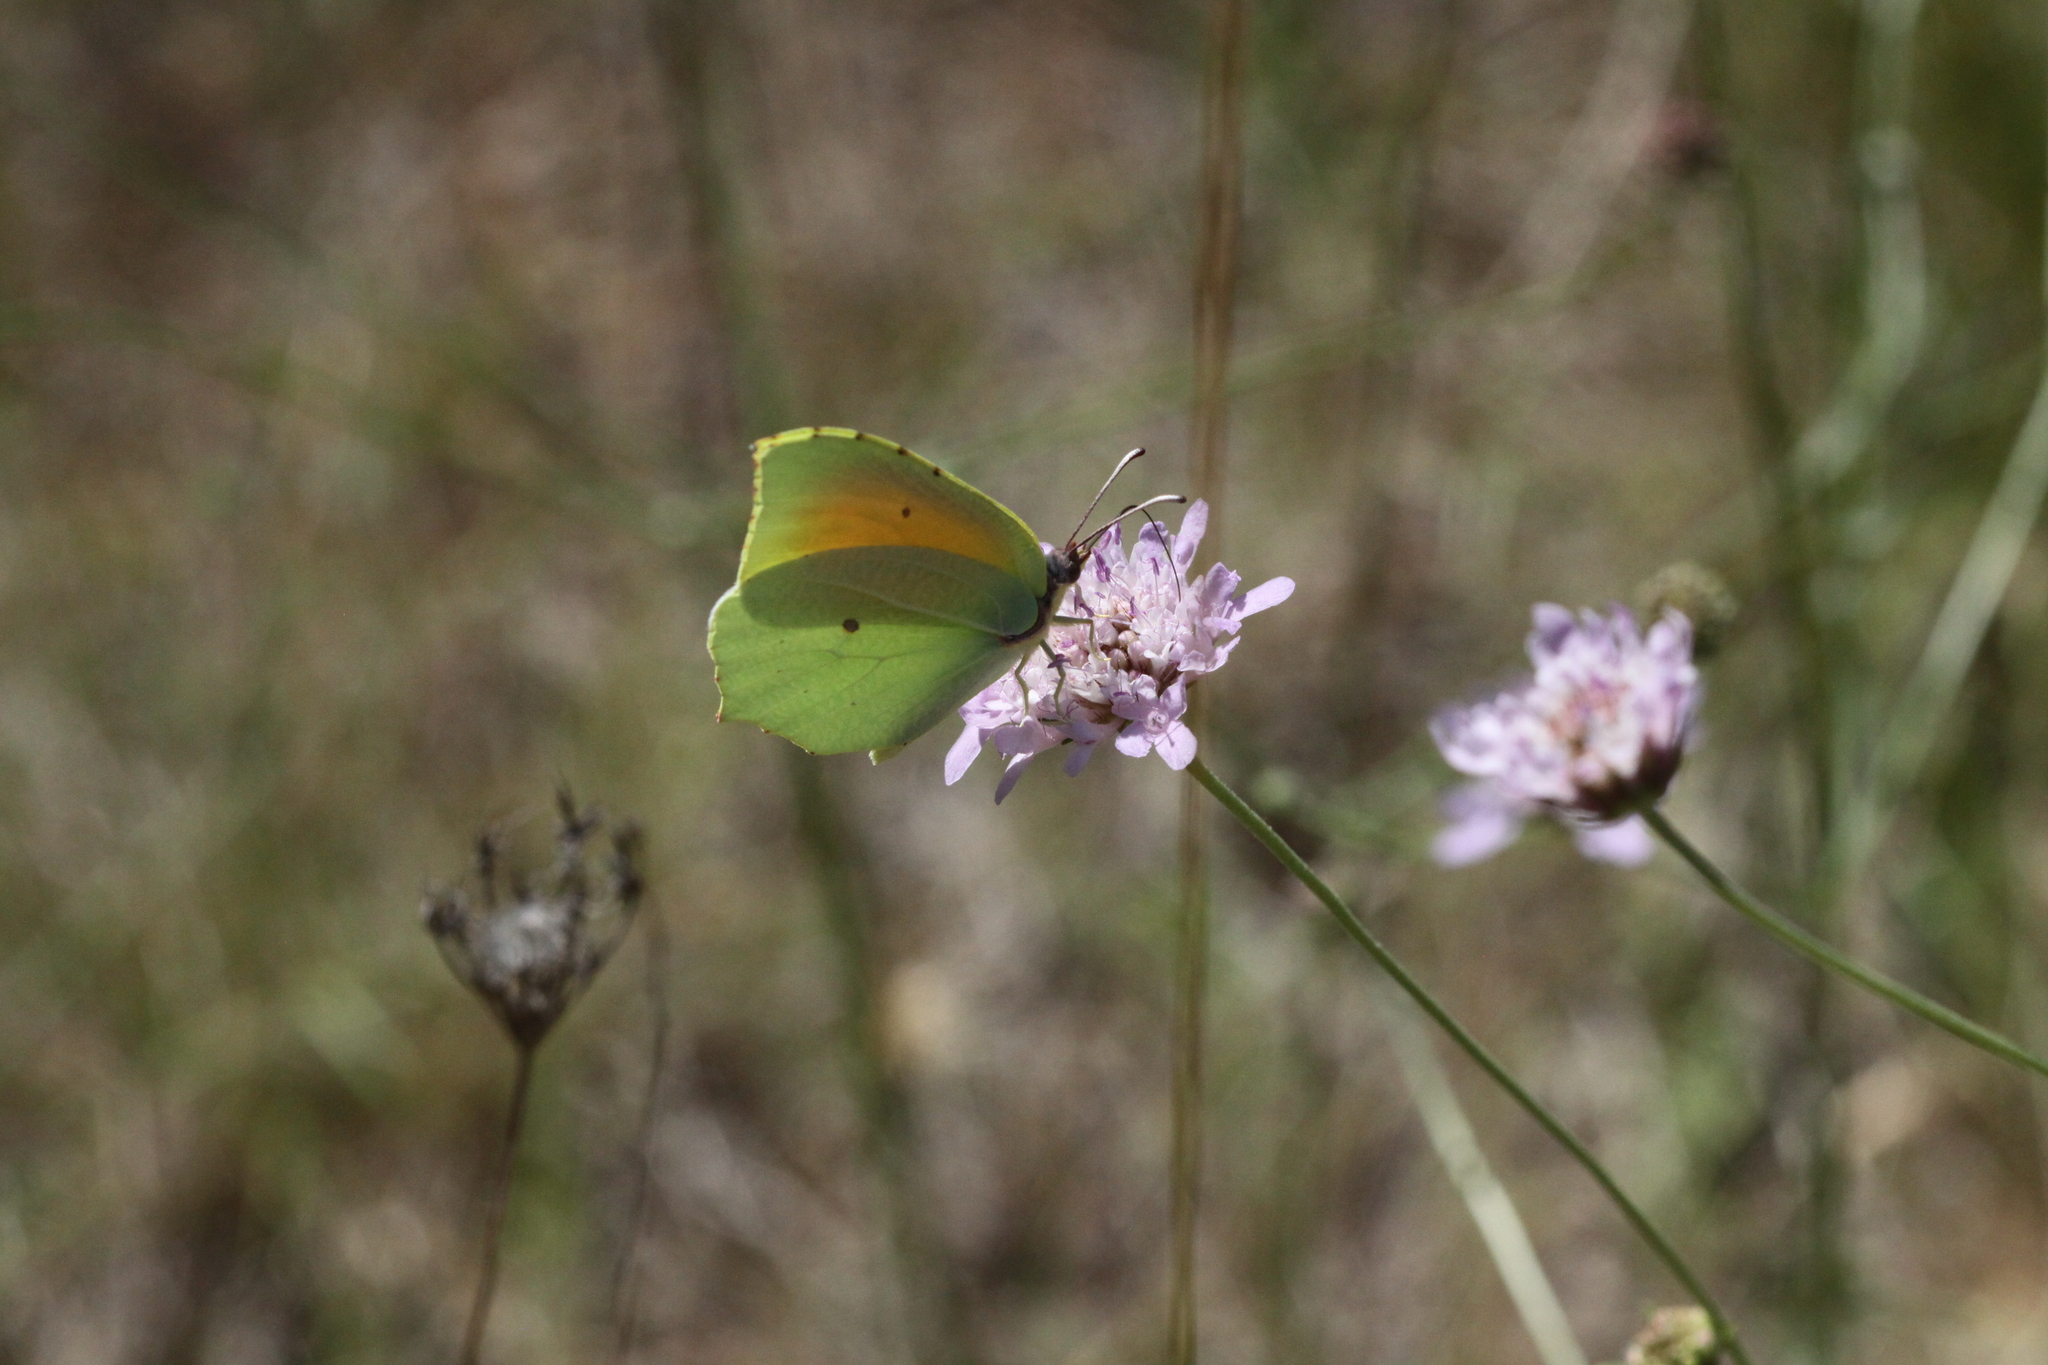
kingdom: Animalia
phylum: Arthropoda
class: Insecta
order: Lepidoptera
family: Pieridae
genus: Gonepteryx
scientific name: Gonepteryx cleopatra
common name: Cleopatra
